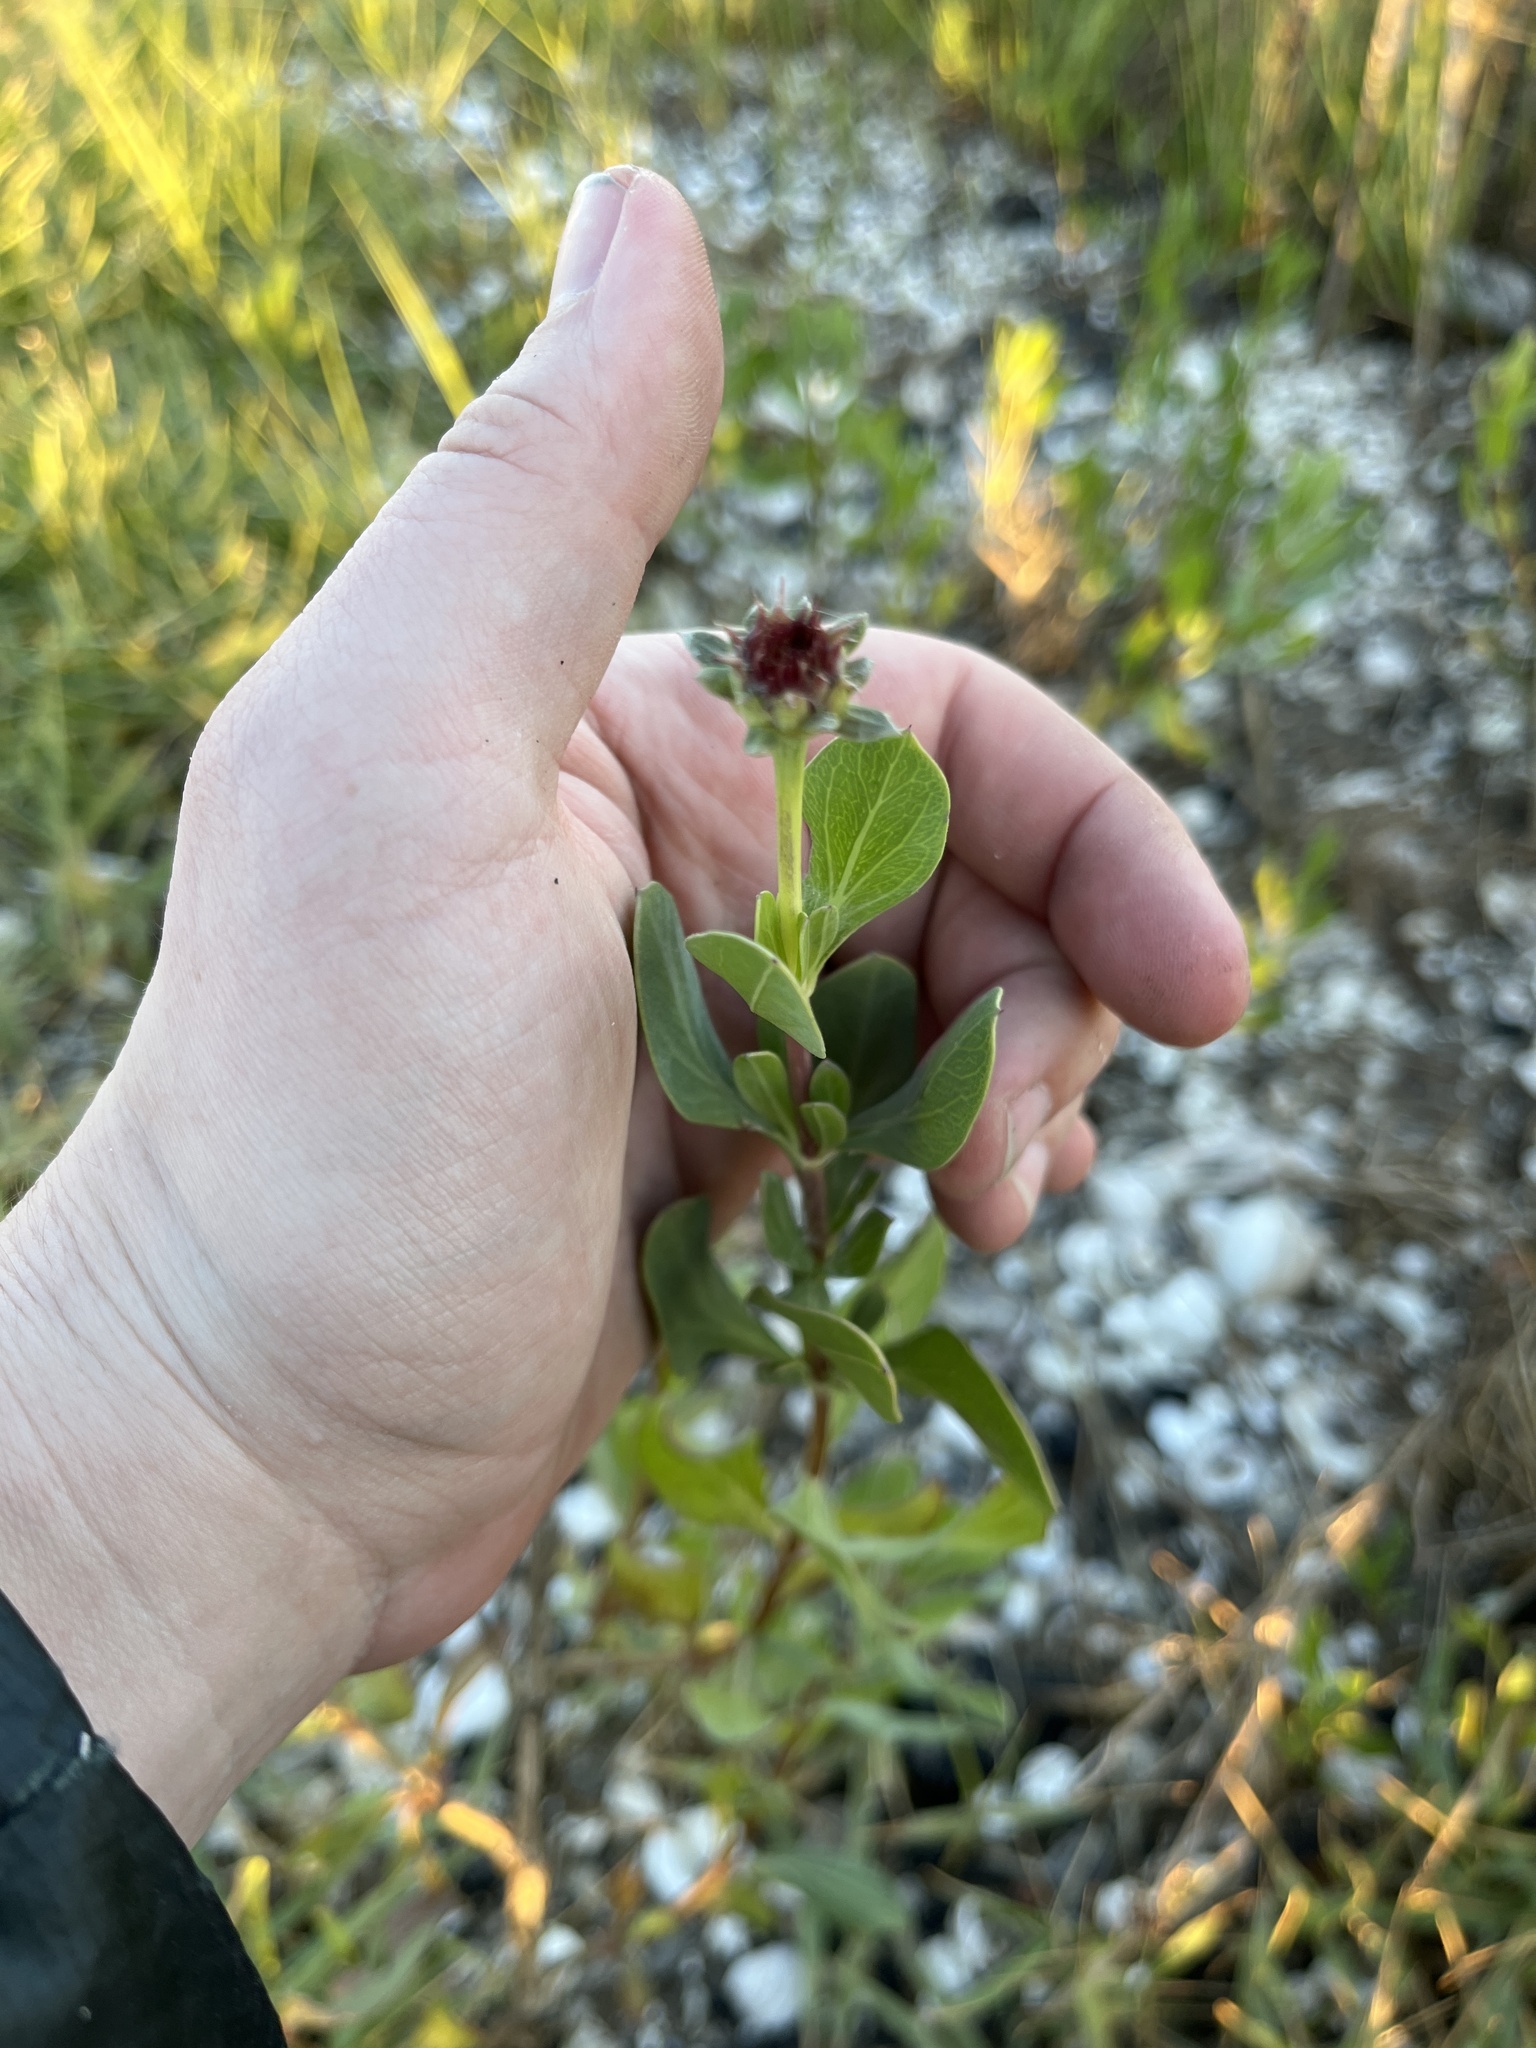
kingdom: Plantae
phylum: Tracheophyta
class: Magnoliopsida
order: Asterales
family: Asteraceae
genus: Borrichia
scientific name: Borrichia frutescens
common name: Sea oxeye
